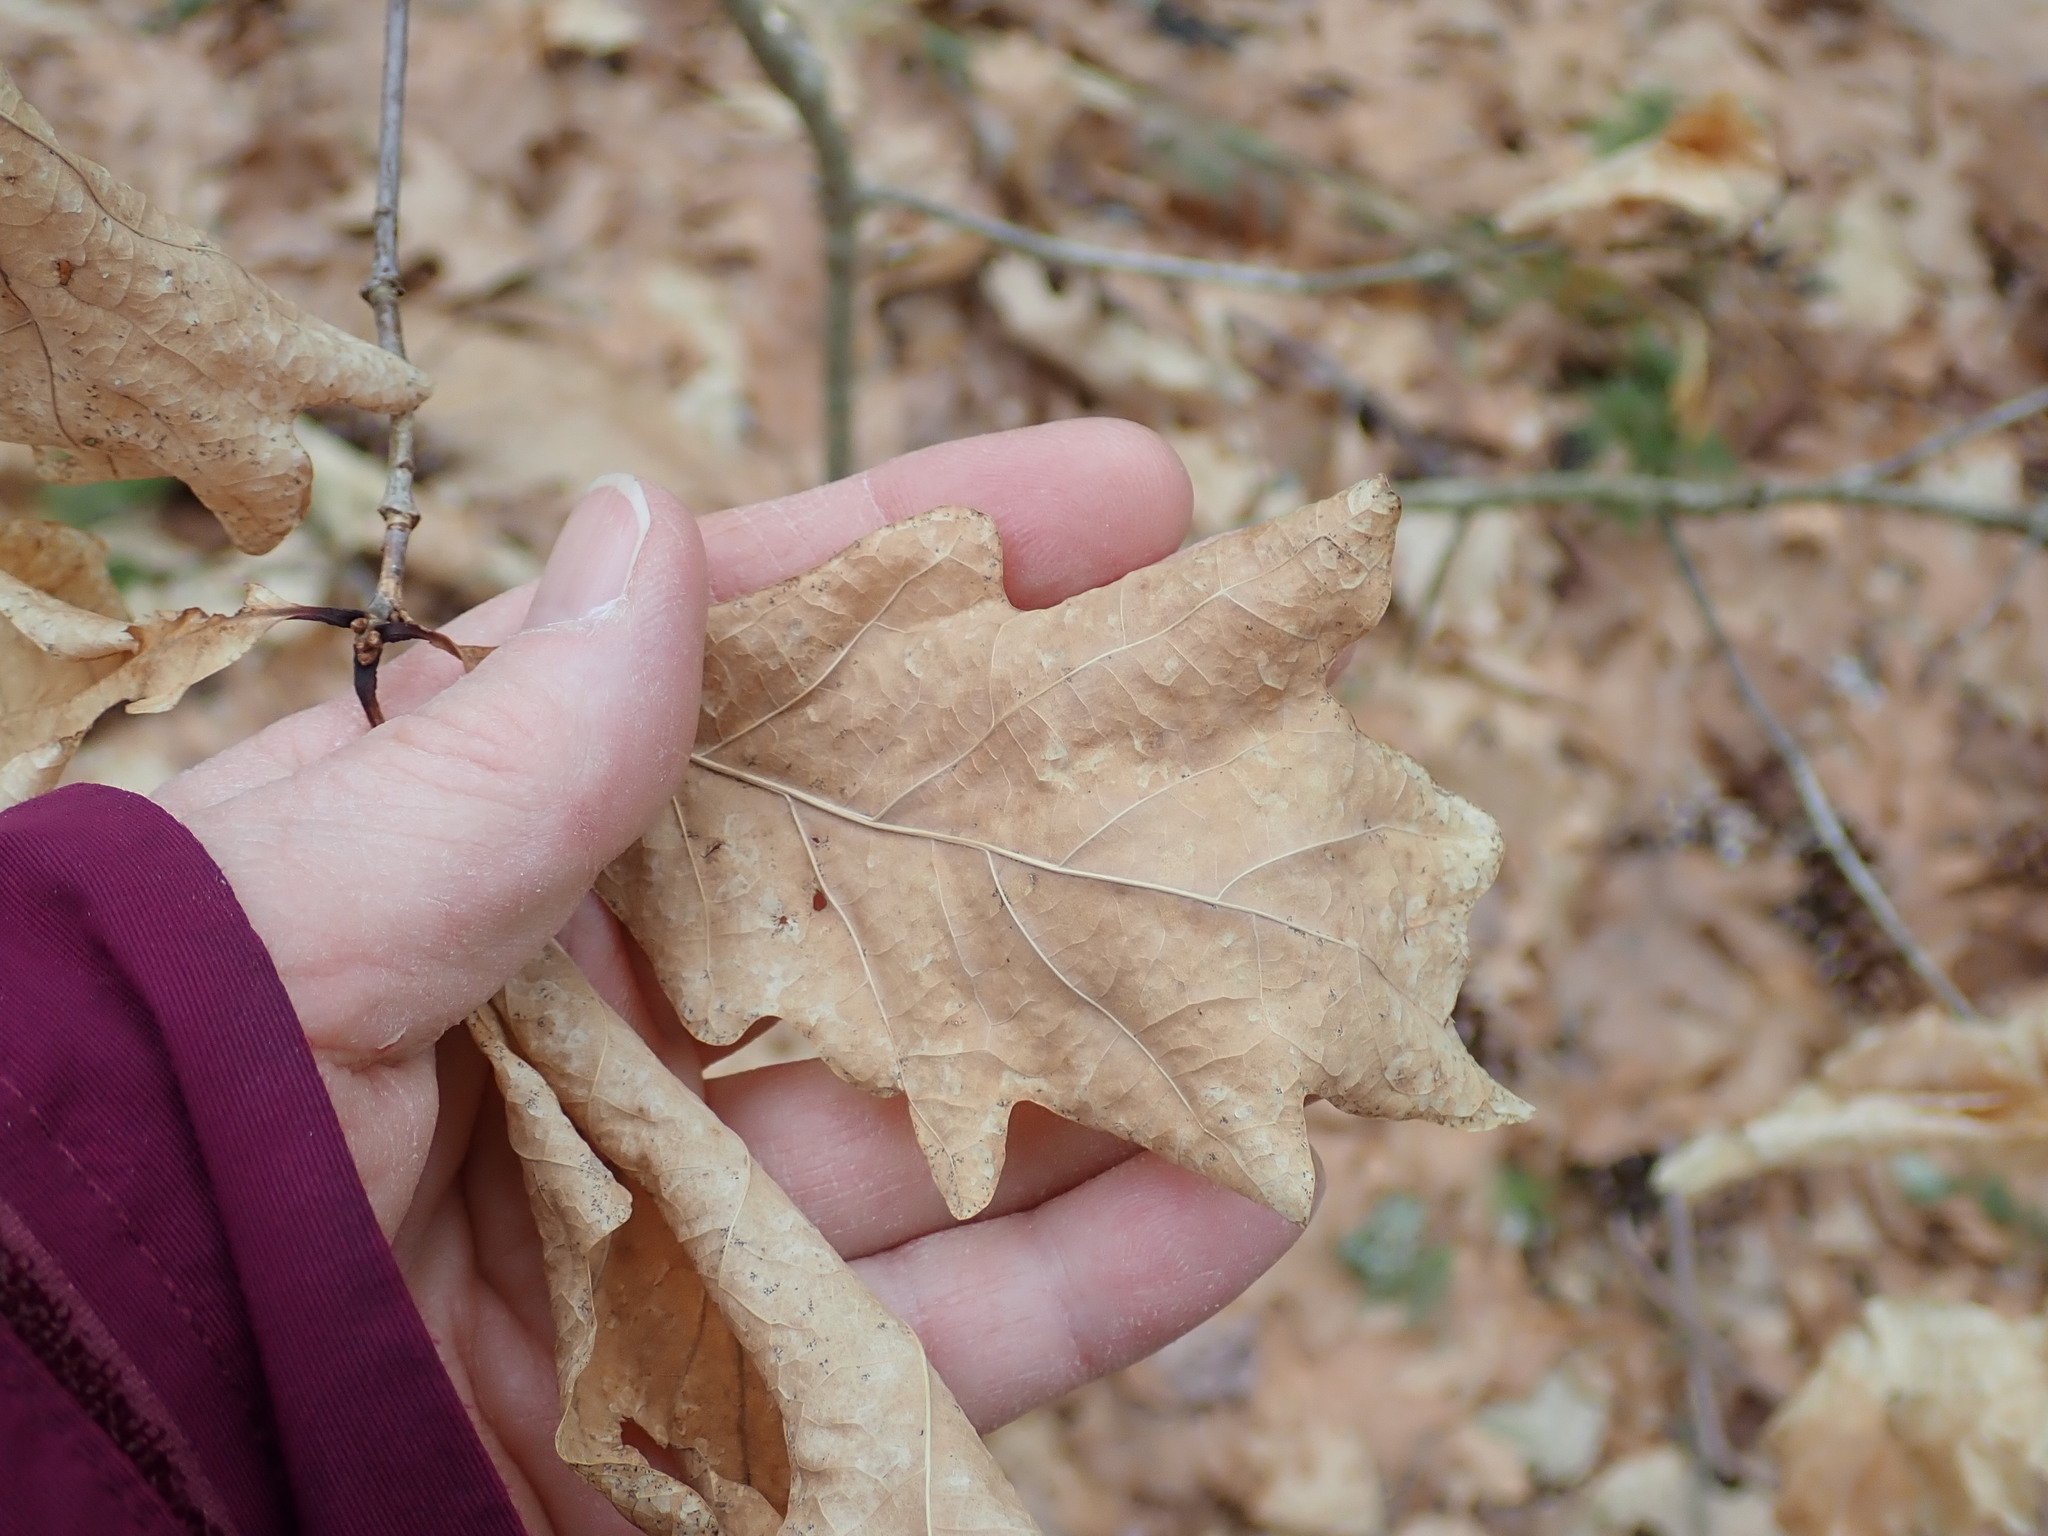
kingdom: Plantae
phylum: Tracheophyta
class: Magnoliopsida
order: Fagales
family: Fagaceae
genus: Quercus
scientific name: Quercus alba
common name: White oak
